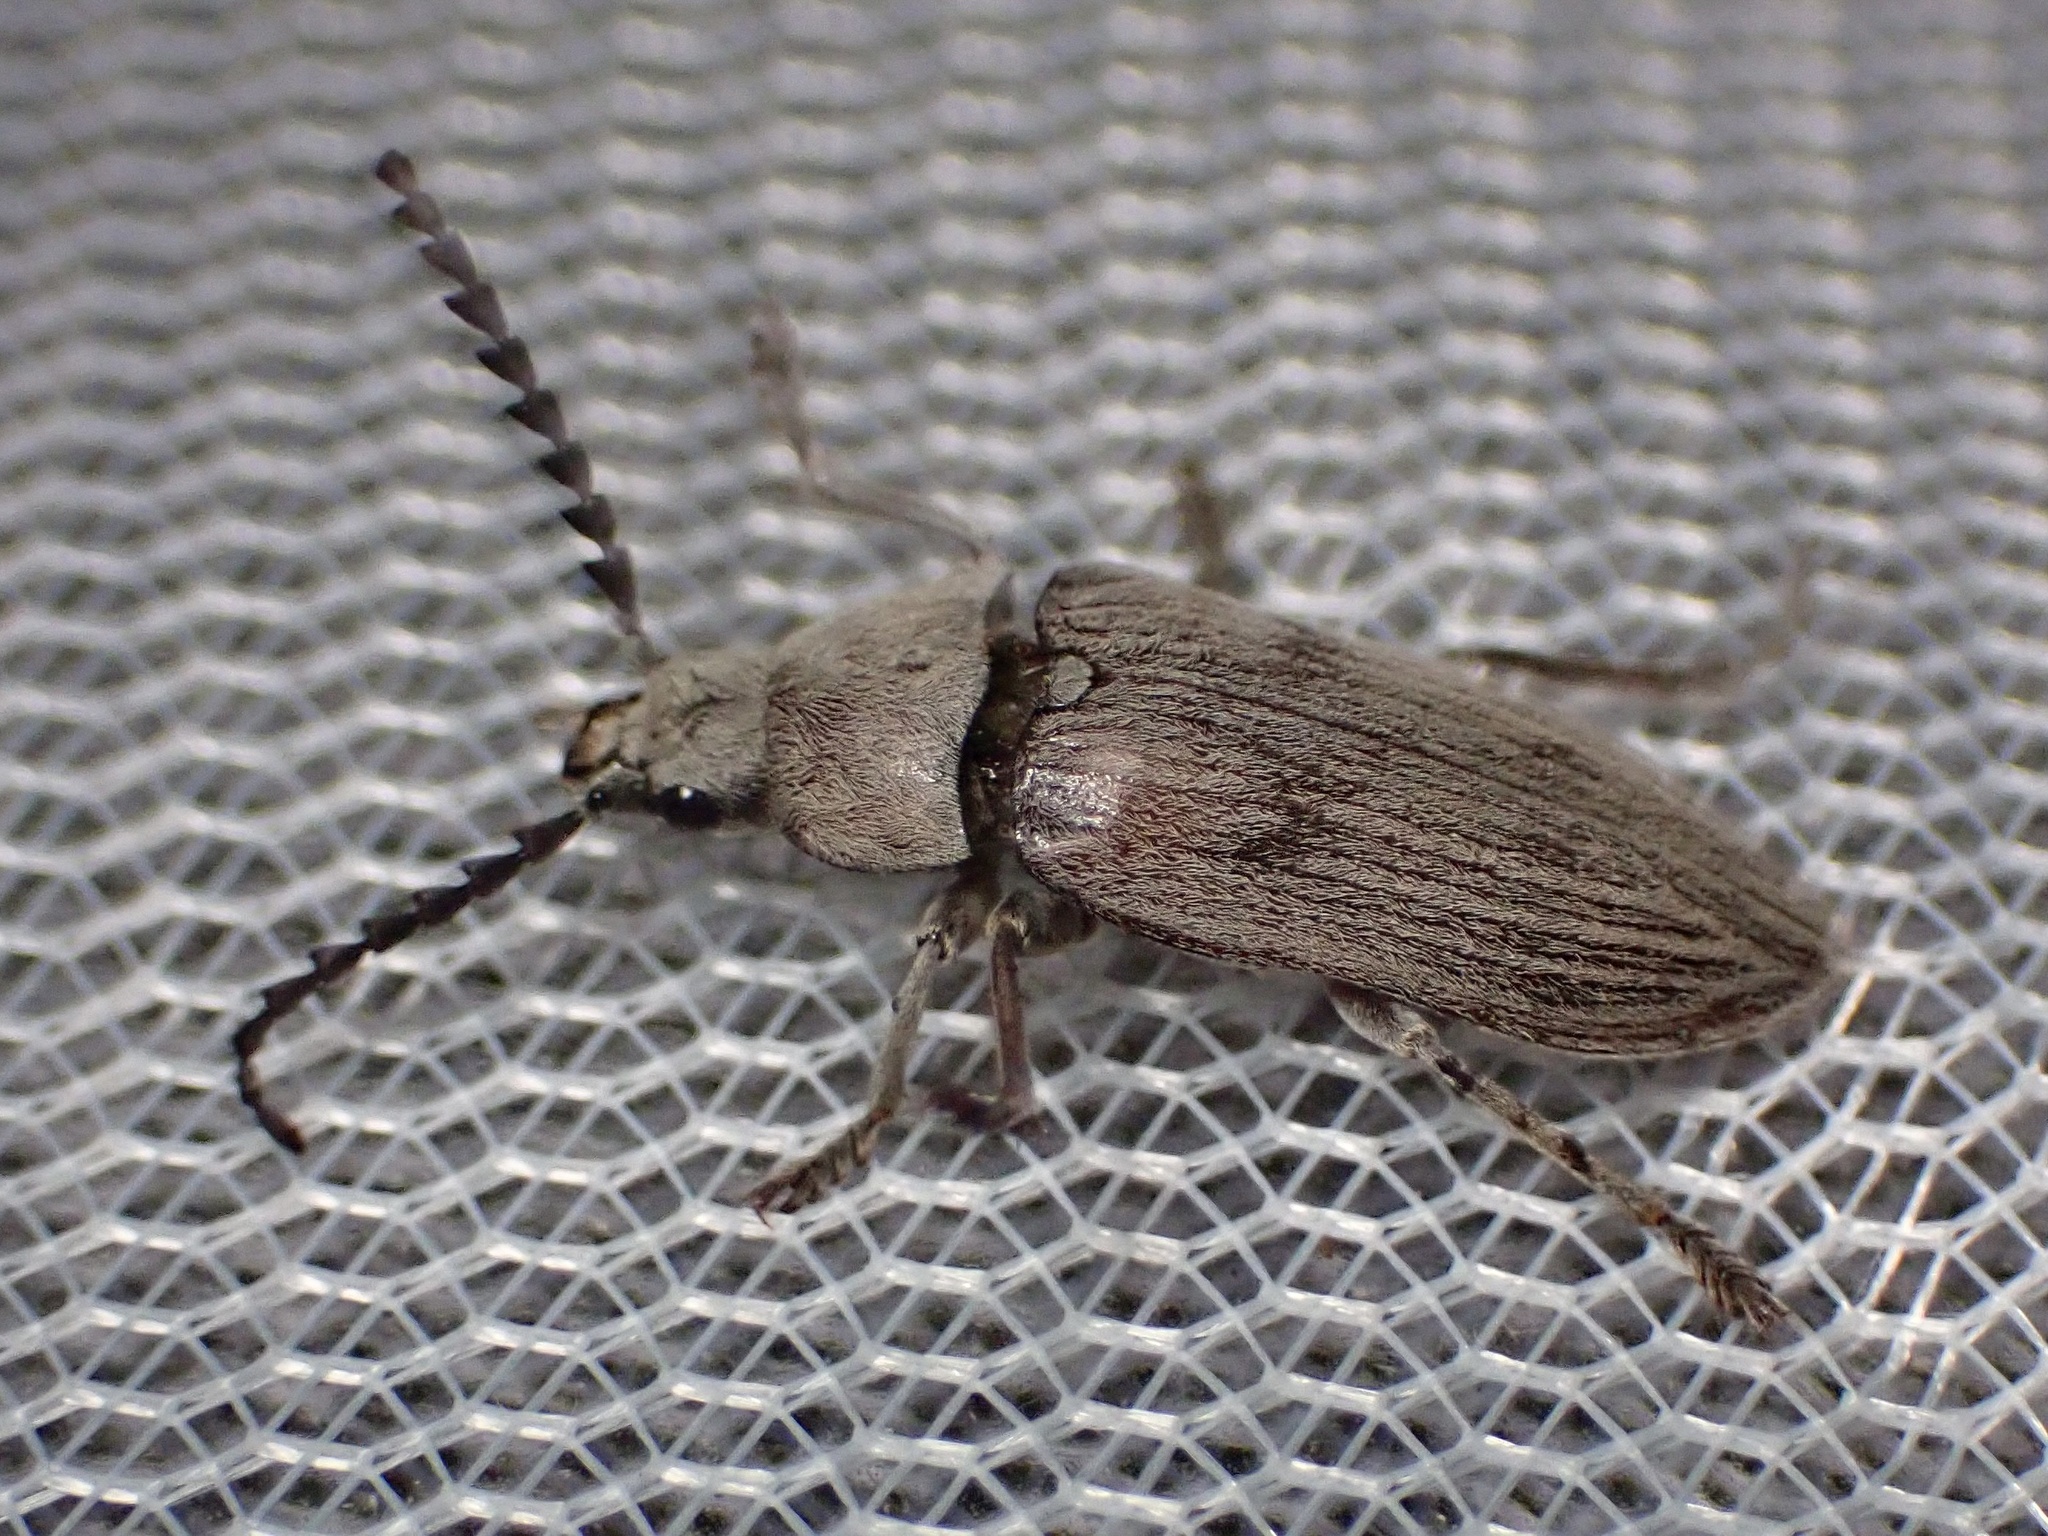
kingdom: Animalia
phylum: Arthropoda
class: Insecta
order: Coleoptera
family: Dascillidae
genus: Dascillus
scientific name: Dascillus davidsoni
